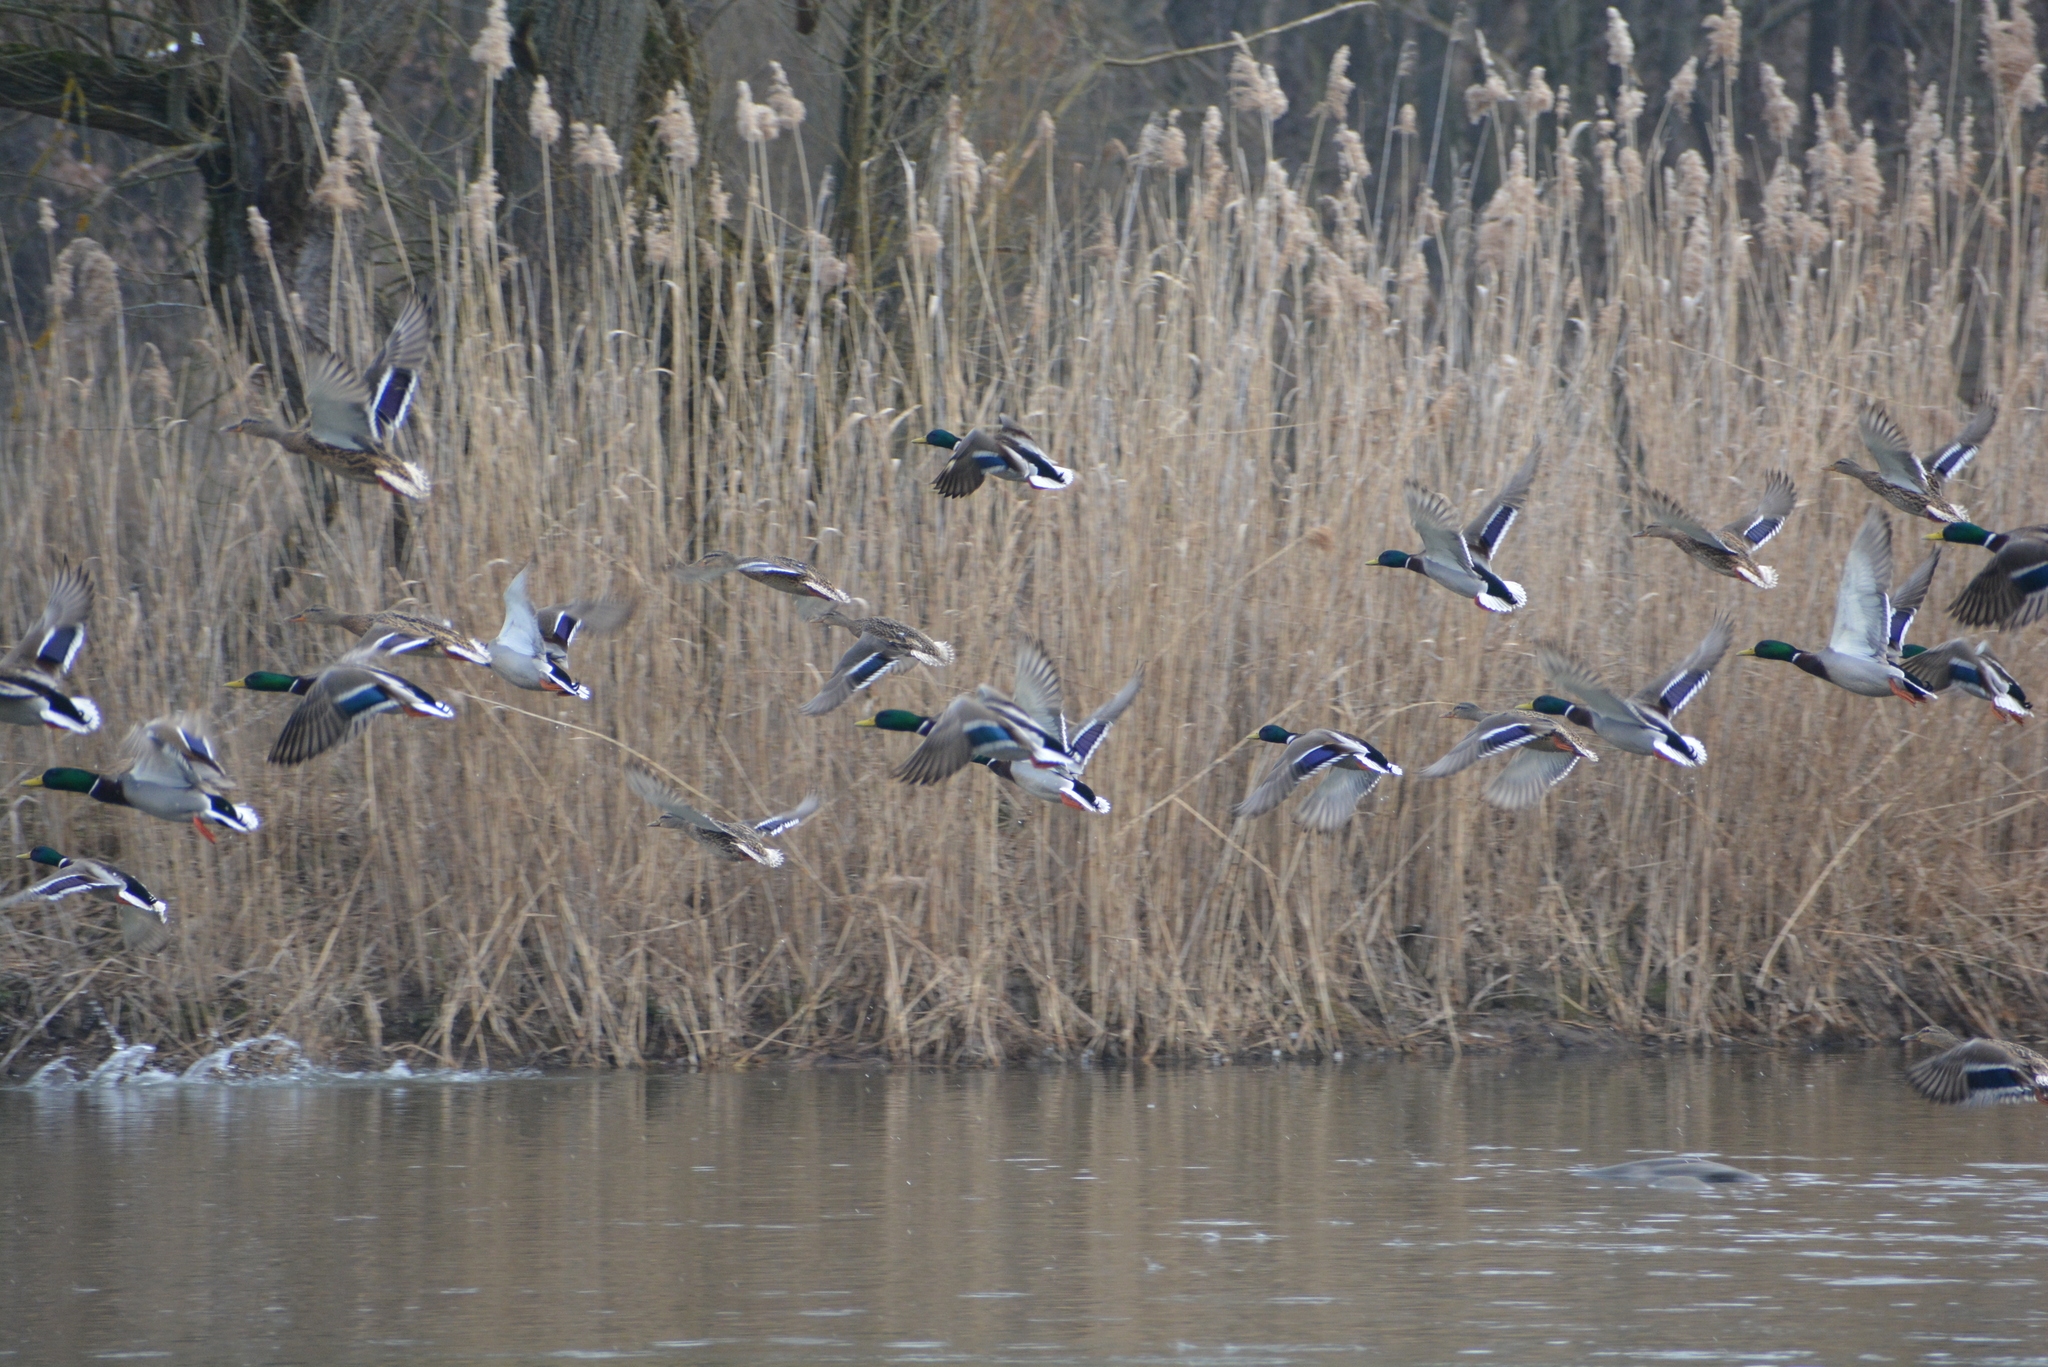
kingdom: Animalia
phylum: Chordata
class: Aves
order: Anseriformes
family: Anatidae
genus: Anas
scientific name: Anas platyrhynchos
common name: Mallard
